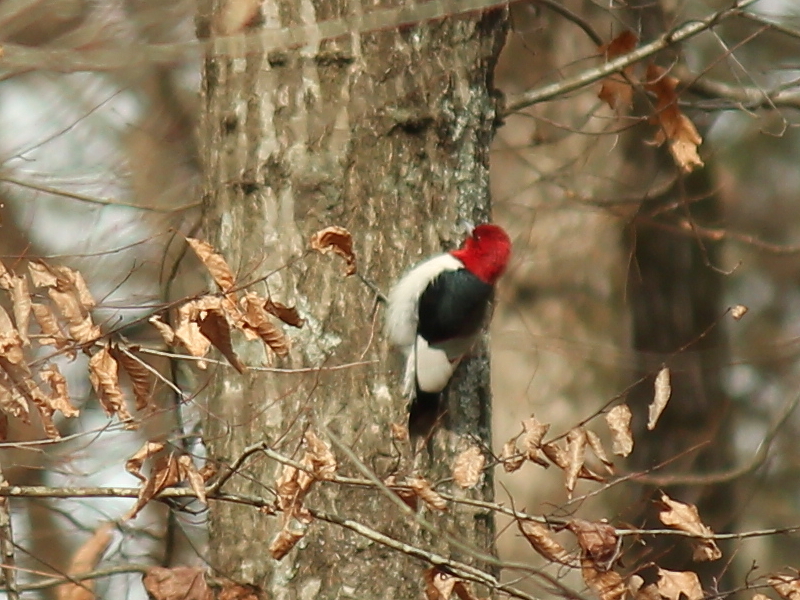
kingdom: Animalia
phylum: Chordata
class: Aves
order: Piciformes
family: Picidae
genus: Melanerpes
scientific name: Melanerpes erythrocephalus
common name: Red-headed woodpecker
